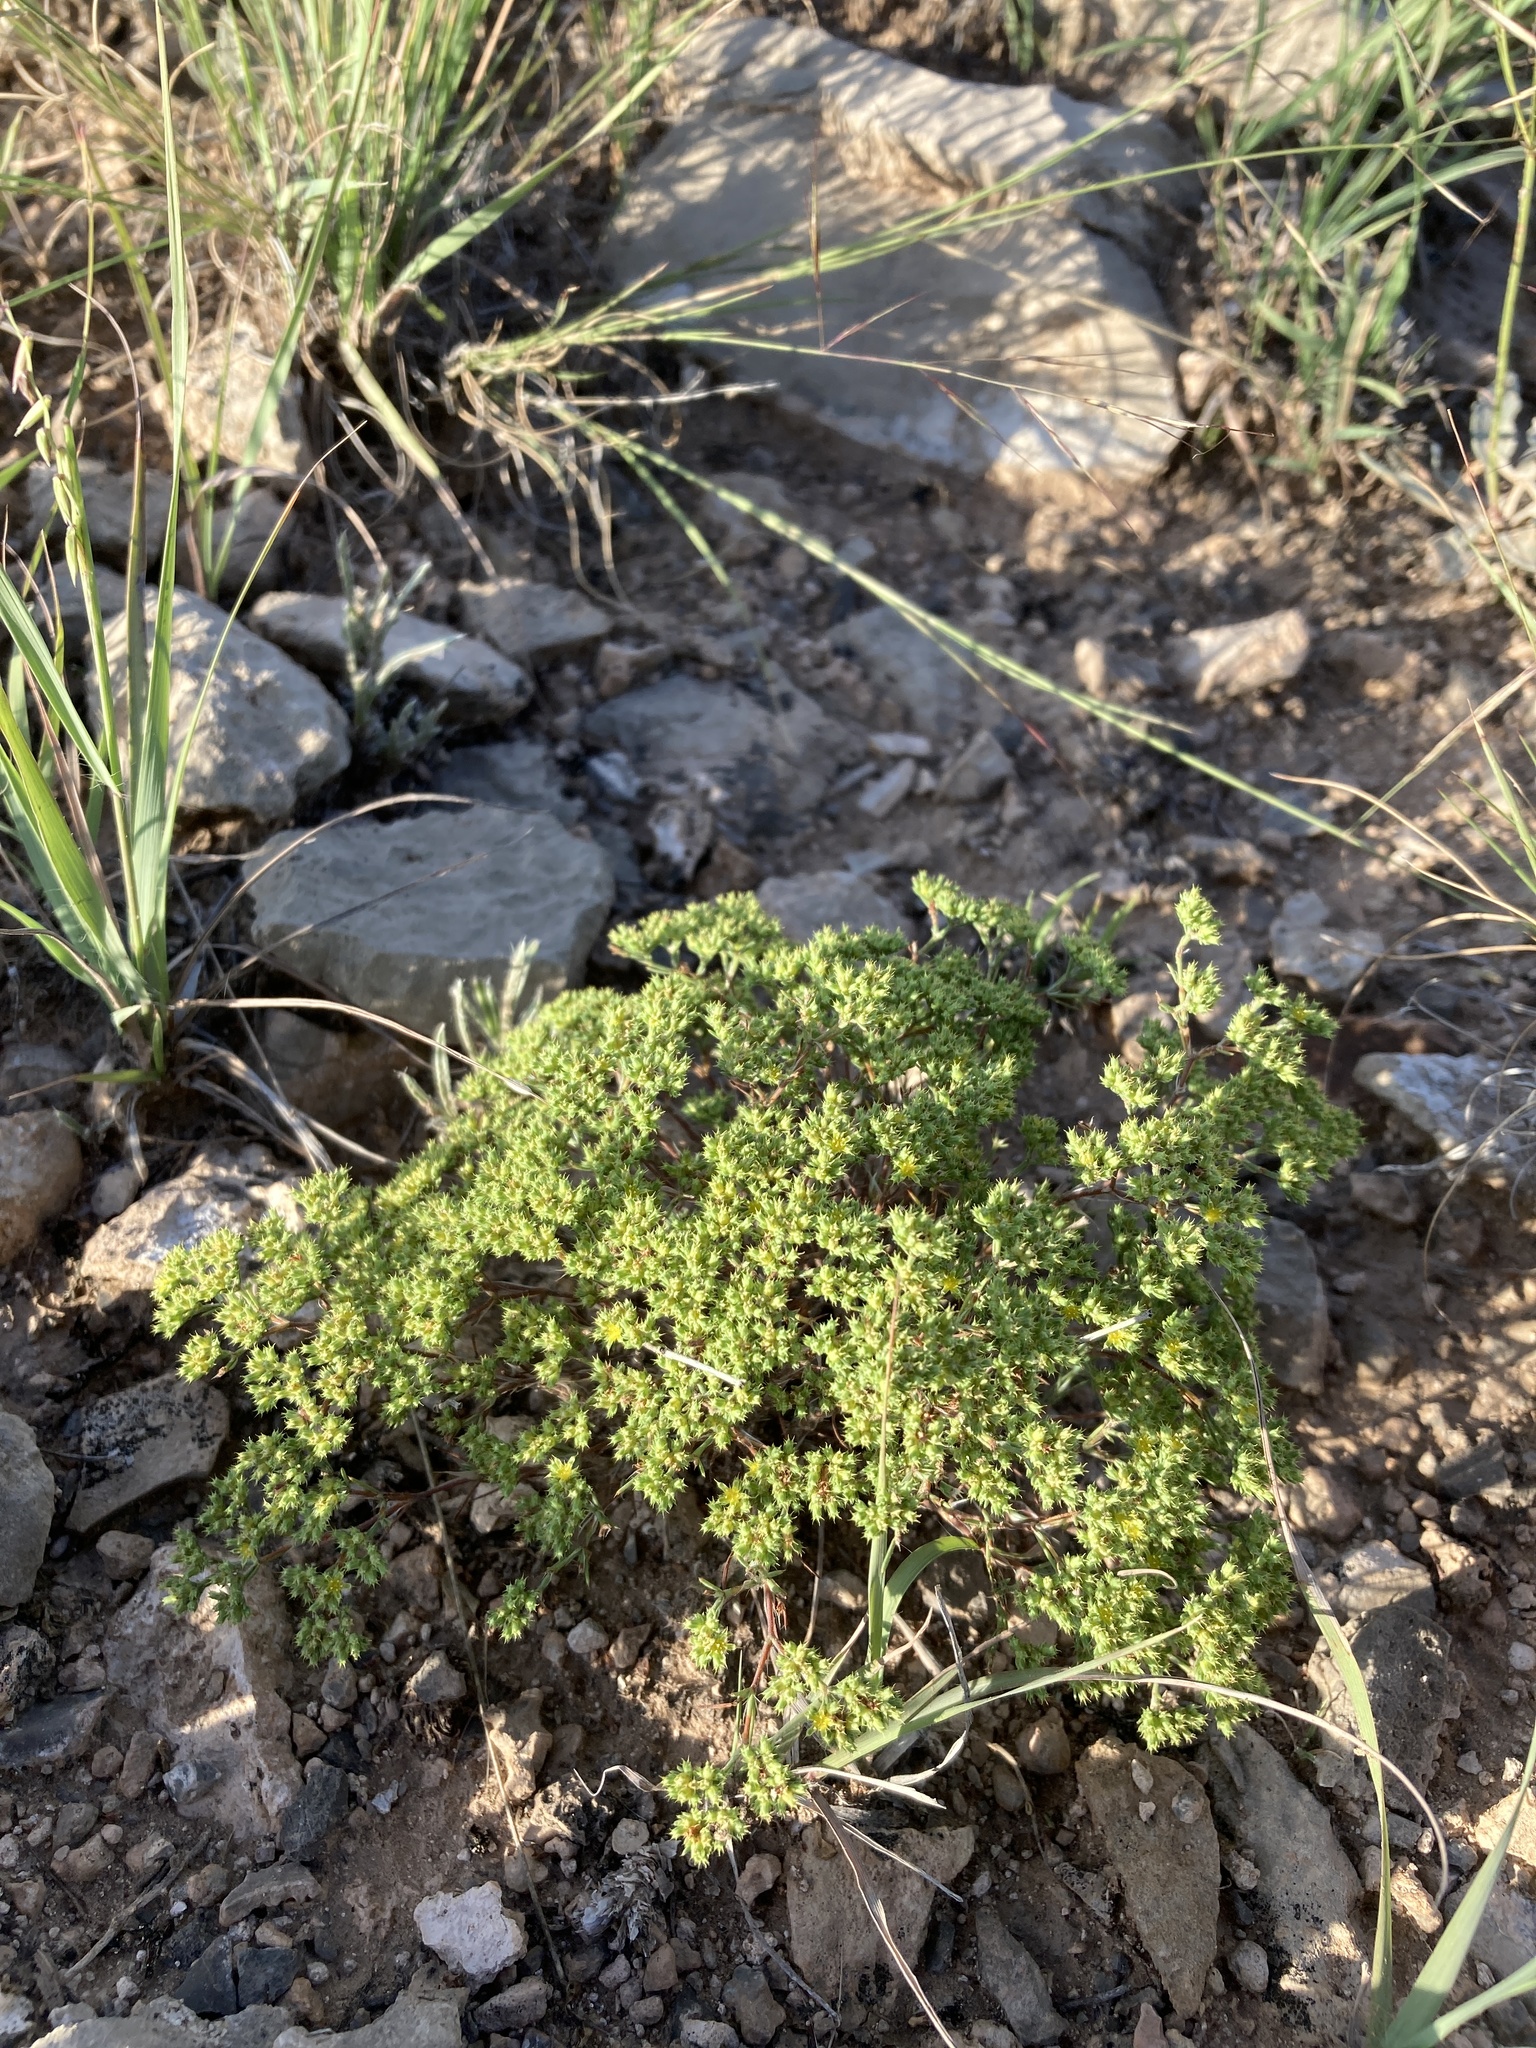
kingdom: Plantae
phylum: Tracheophyta
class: Magnoliopsida
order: Caryophyllales
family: Caryophyllaceae
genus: Paronychia
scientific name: Paronychia jamesii
